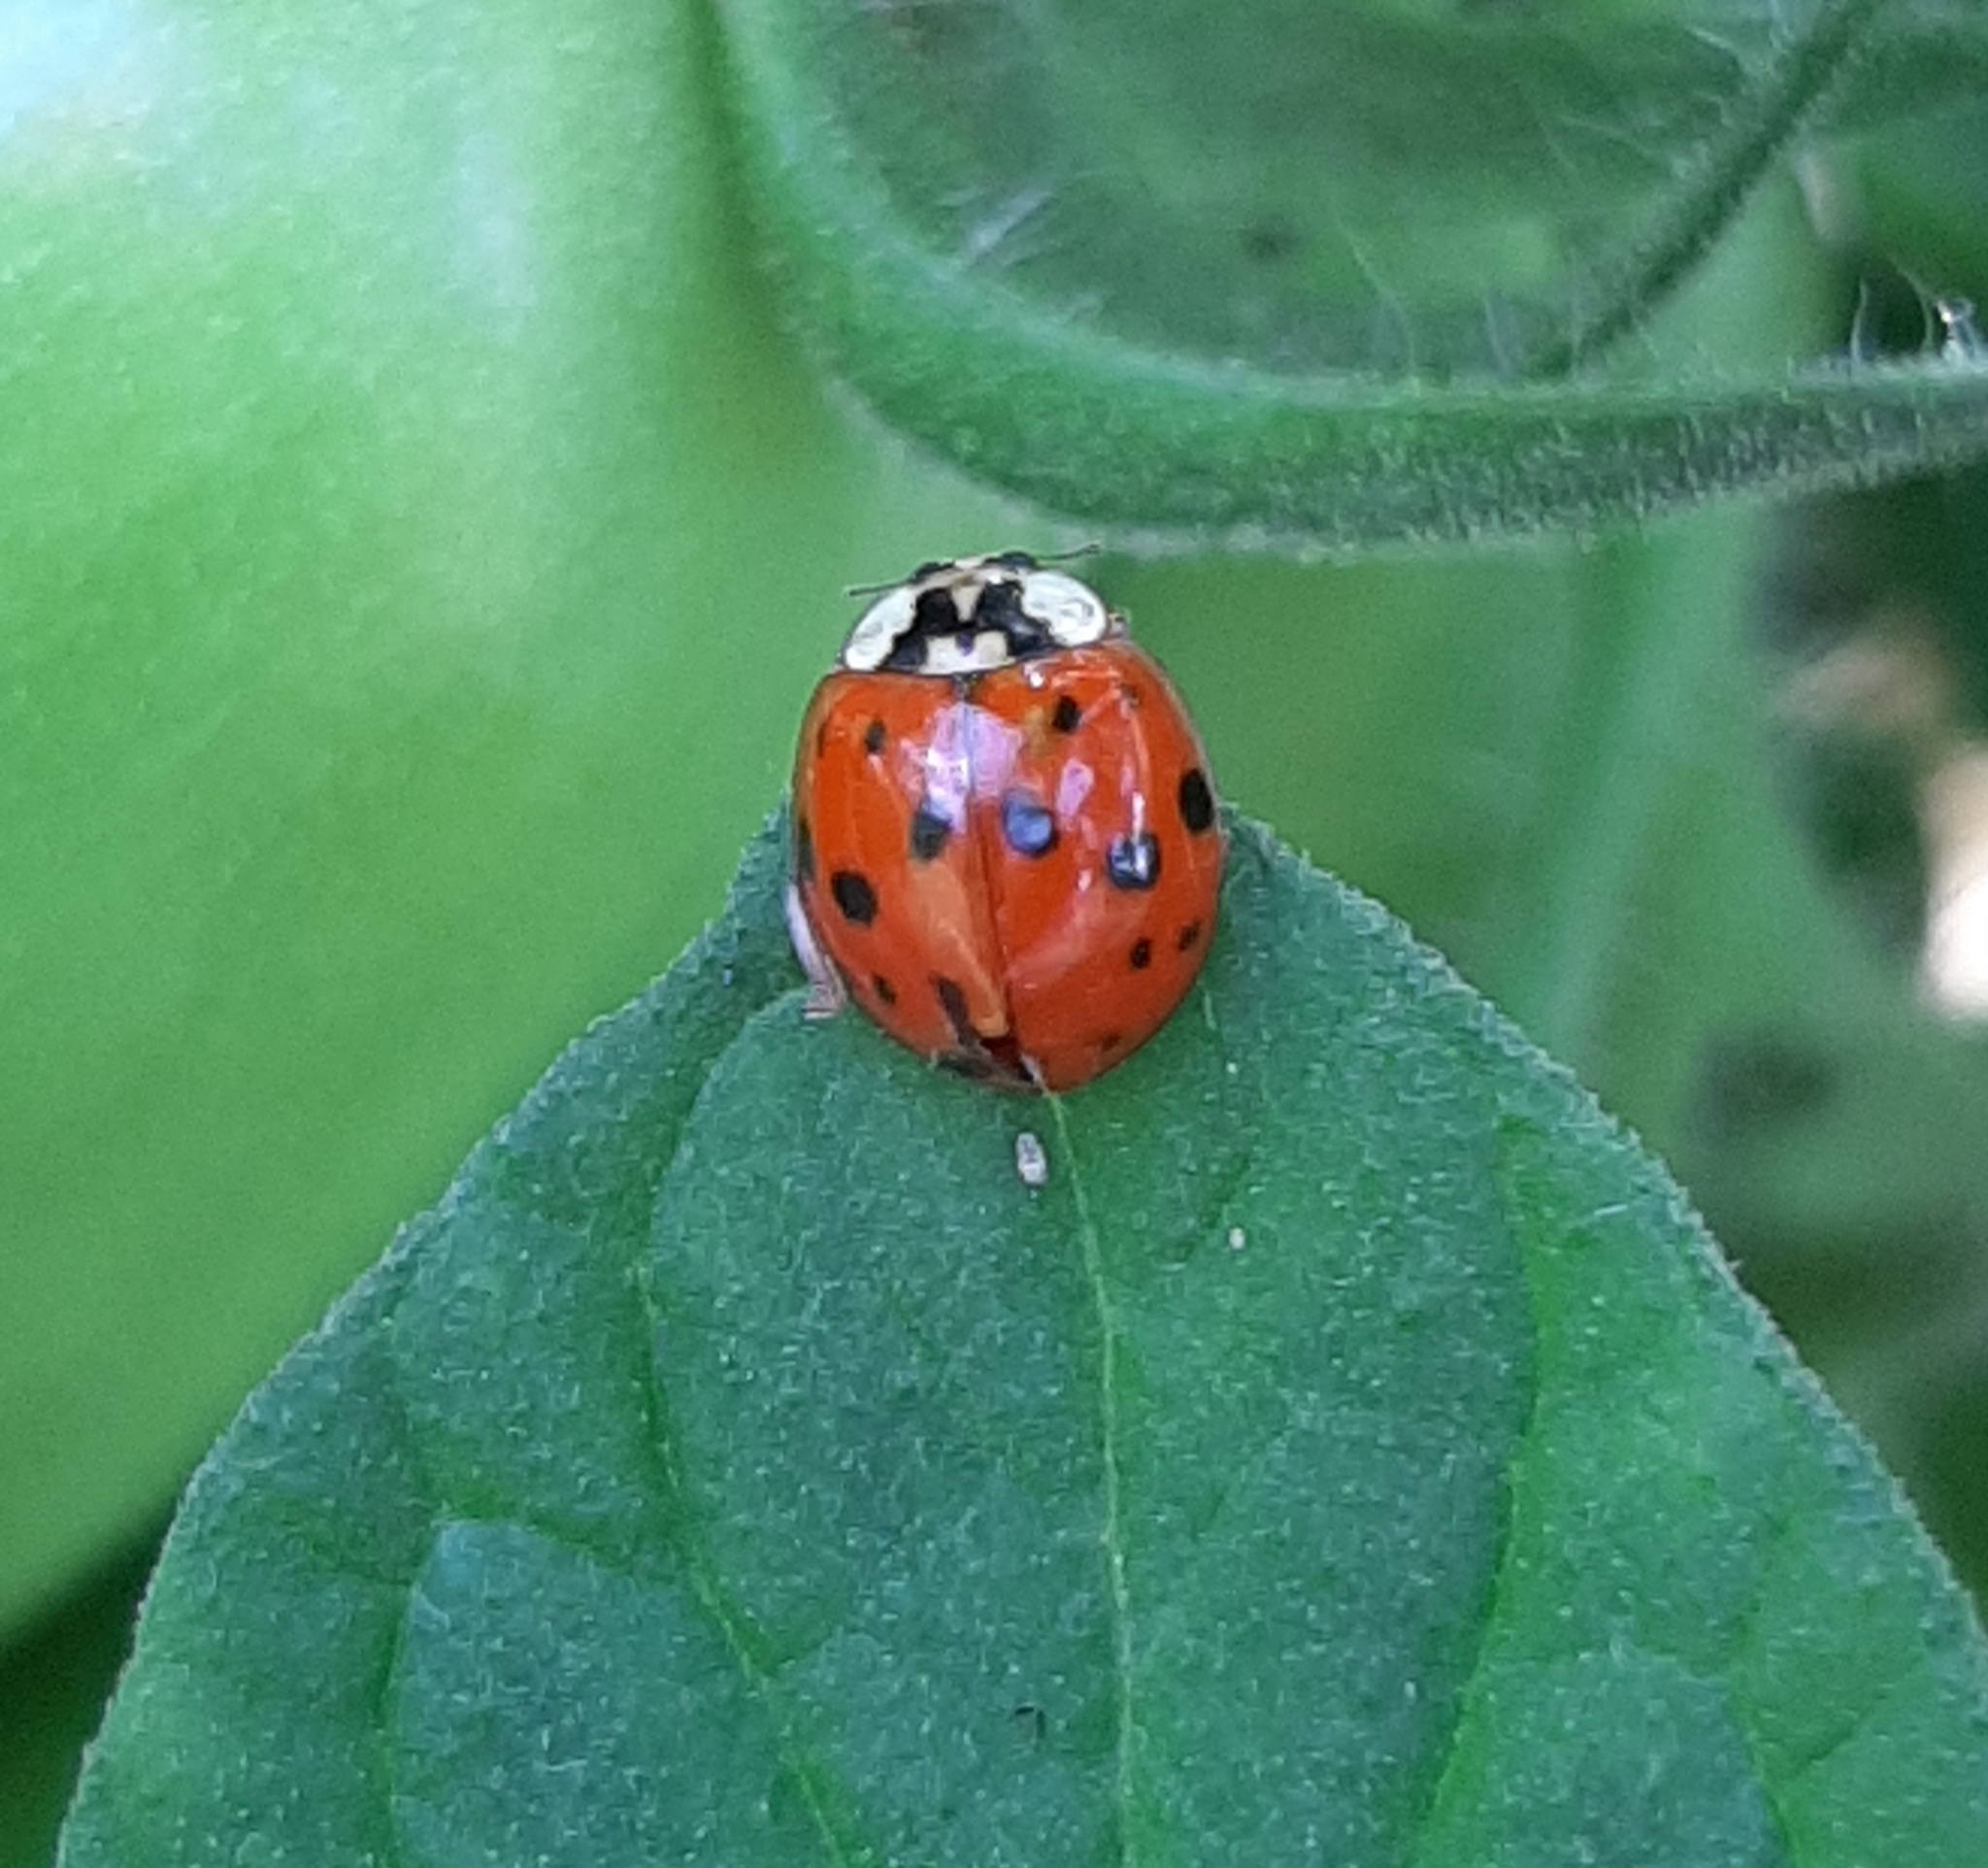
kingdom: Animalia
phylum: Arthropoda
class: Insecta
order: Coleoptera
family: Coccinellidae
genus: Harmonia
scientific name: Harmonia axyridis
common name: Harlequin ladybird
